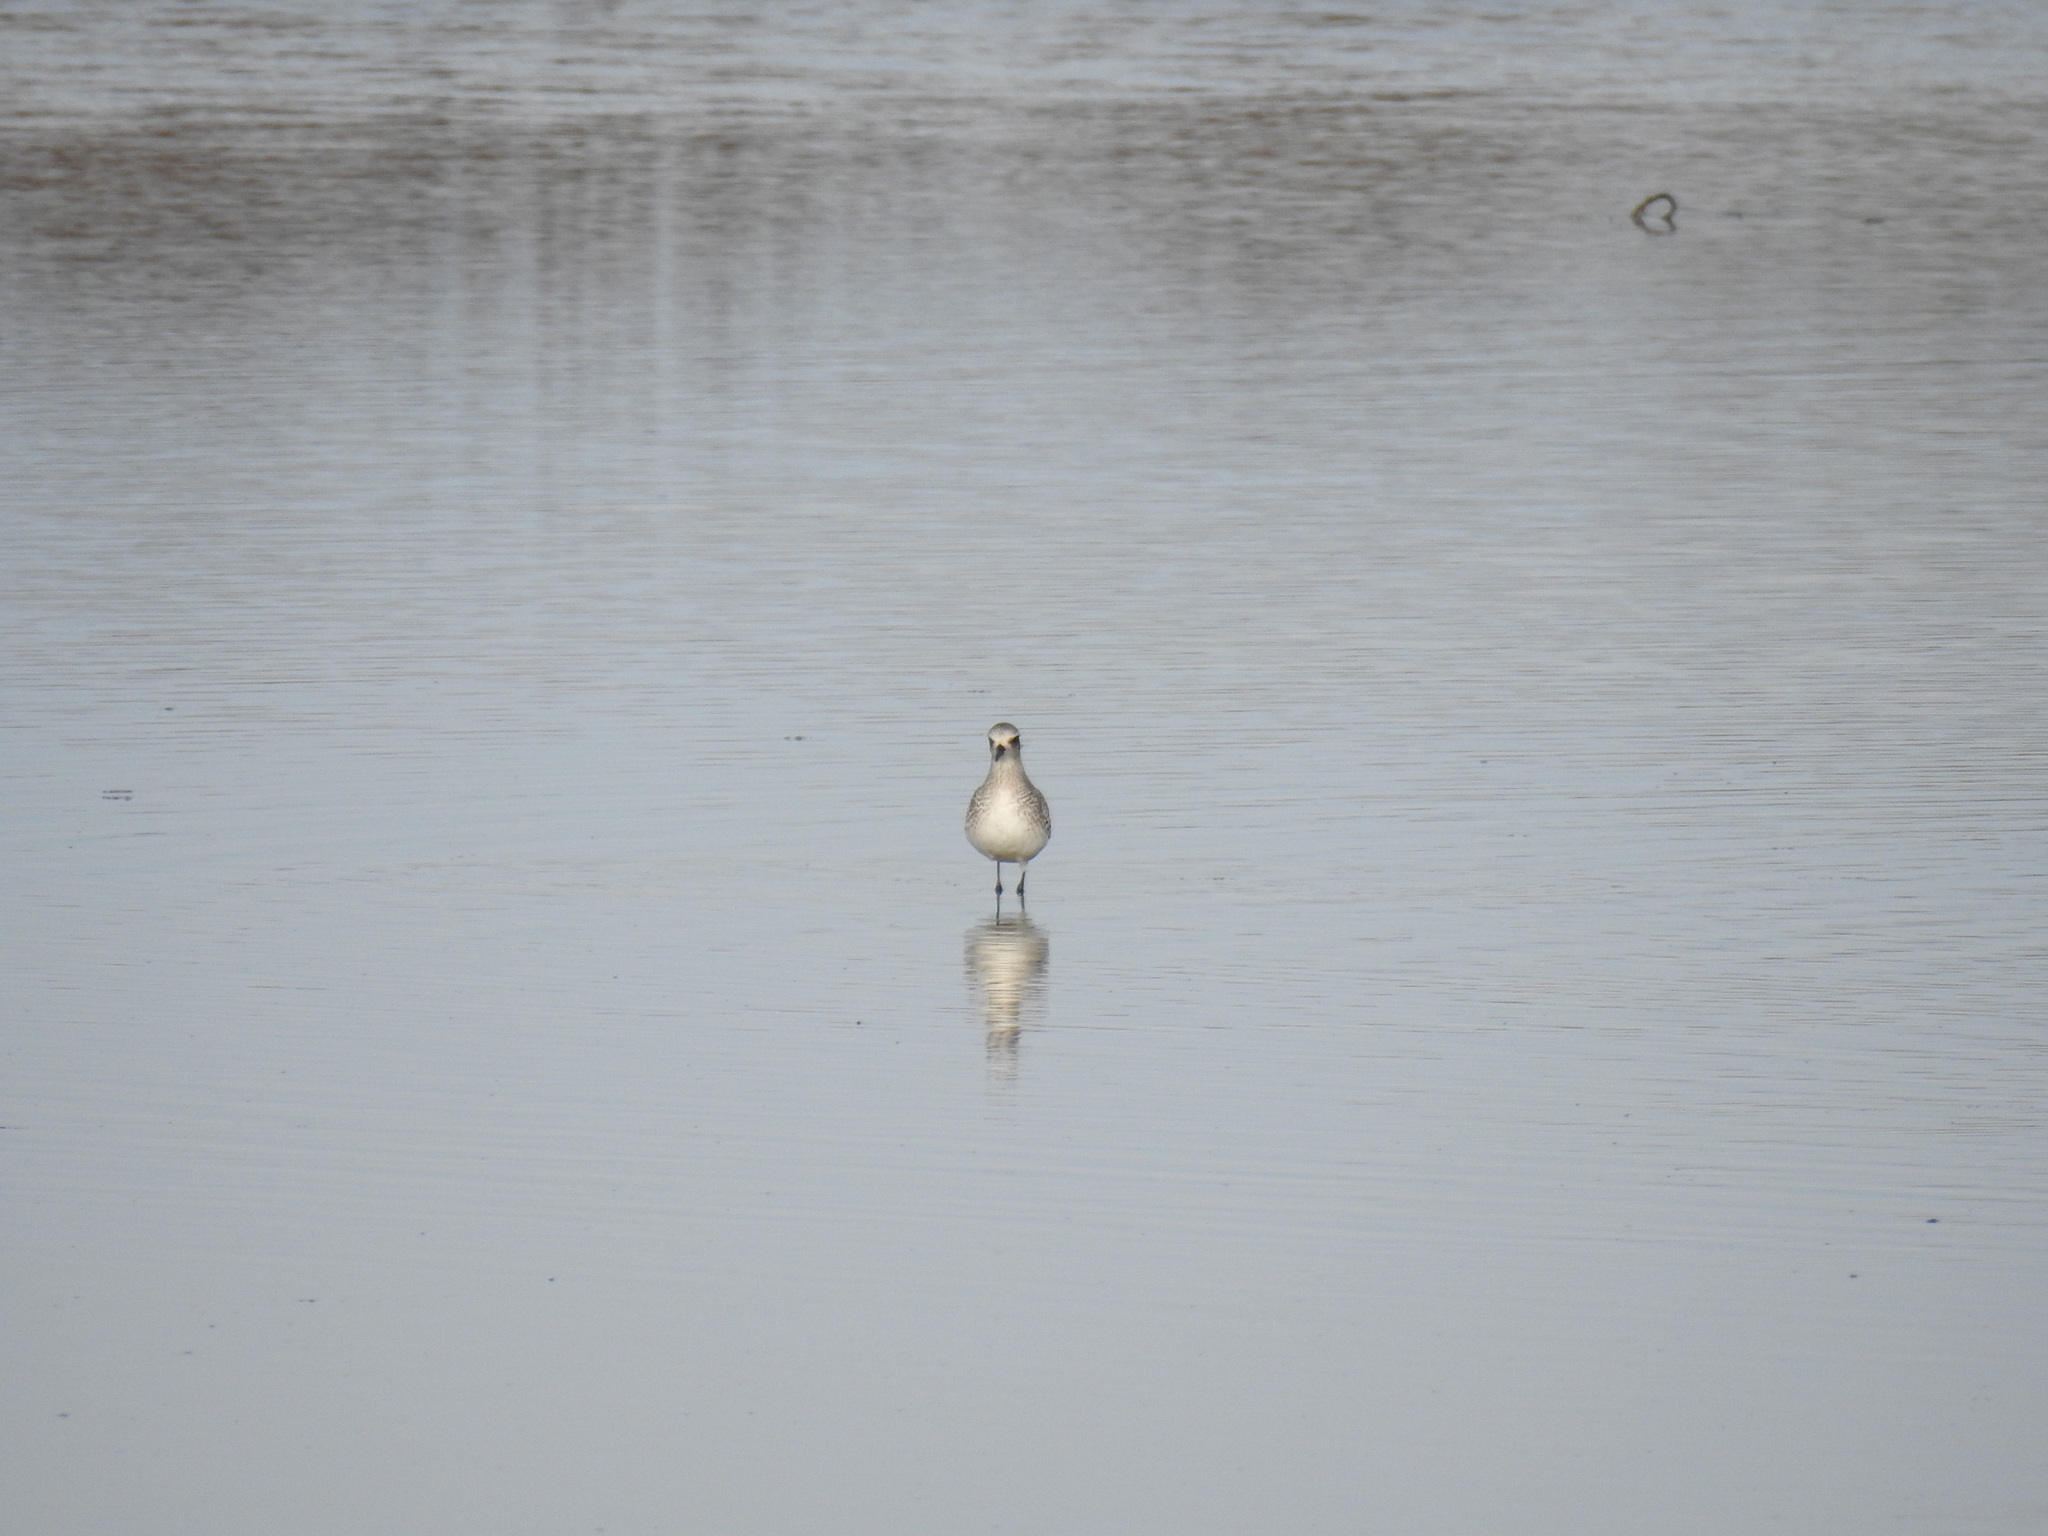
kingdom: Animalia
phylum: Chordata
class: Aves
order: Charadriiformes
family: Charadriidae
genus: Pluvialis
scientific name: Pluvialis squatarola
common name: Grey plover
